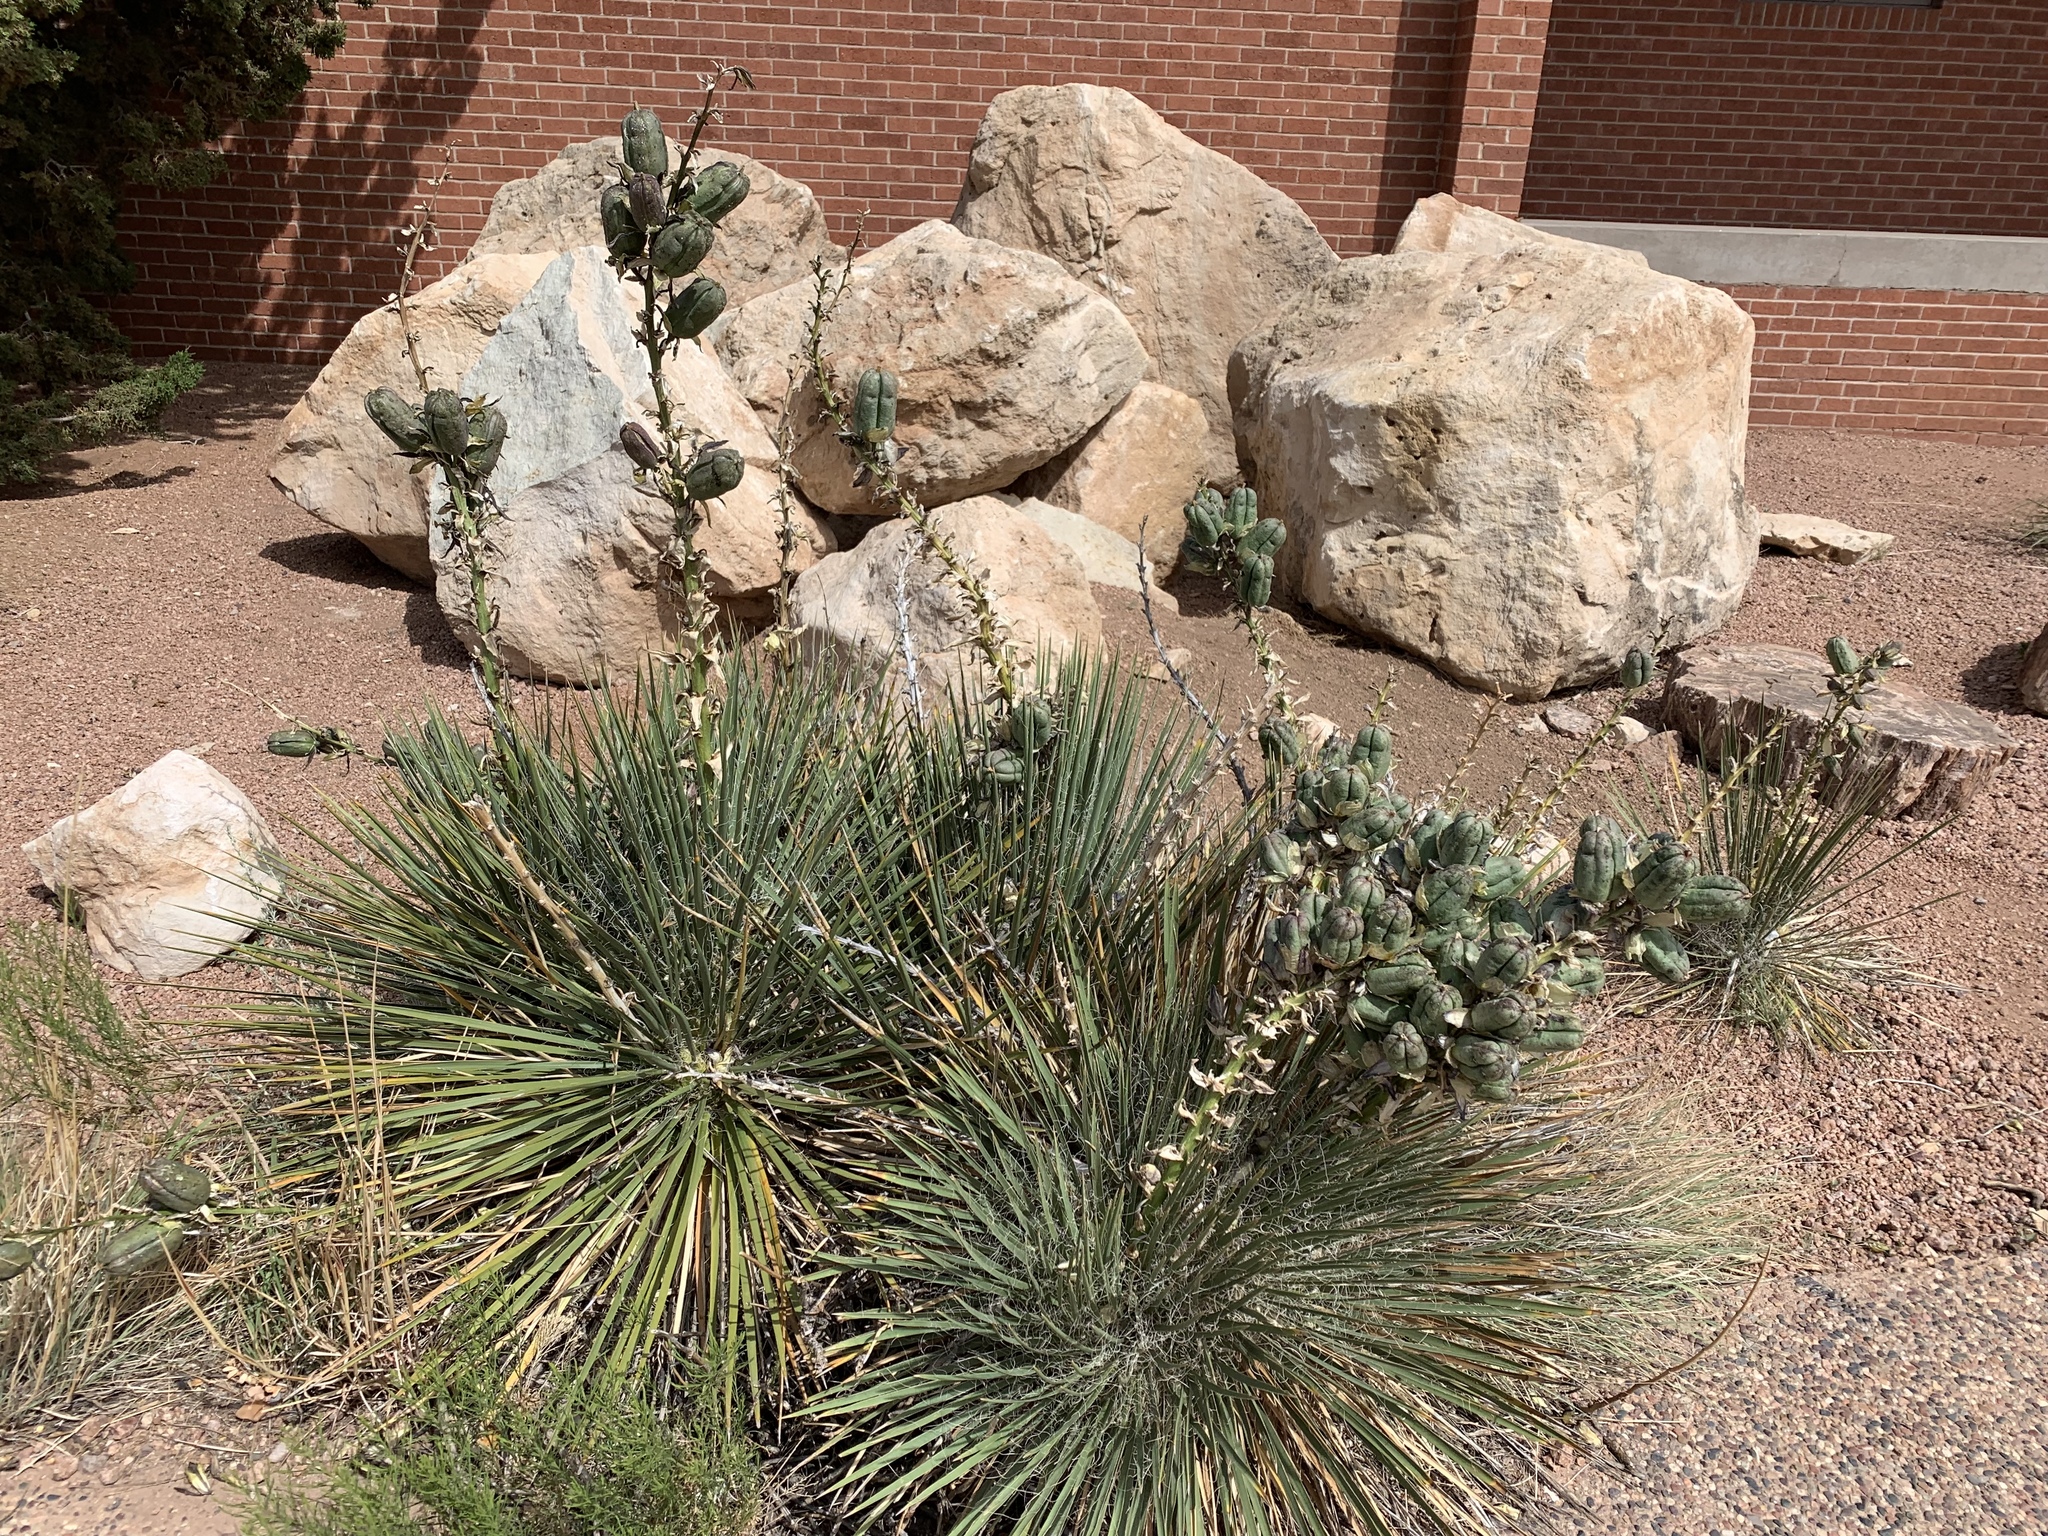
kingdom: Plantae
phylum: Tracheophyta
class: Liliopsida
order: Asparagales
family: Asparagaceae
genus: Yucca
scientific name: Yucca angustissima
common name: Narrowleaf yucca
